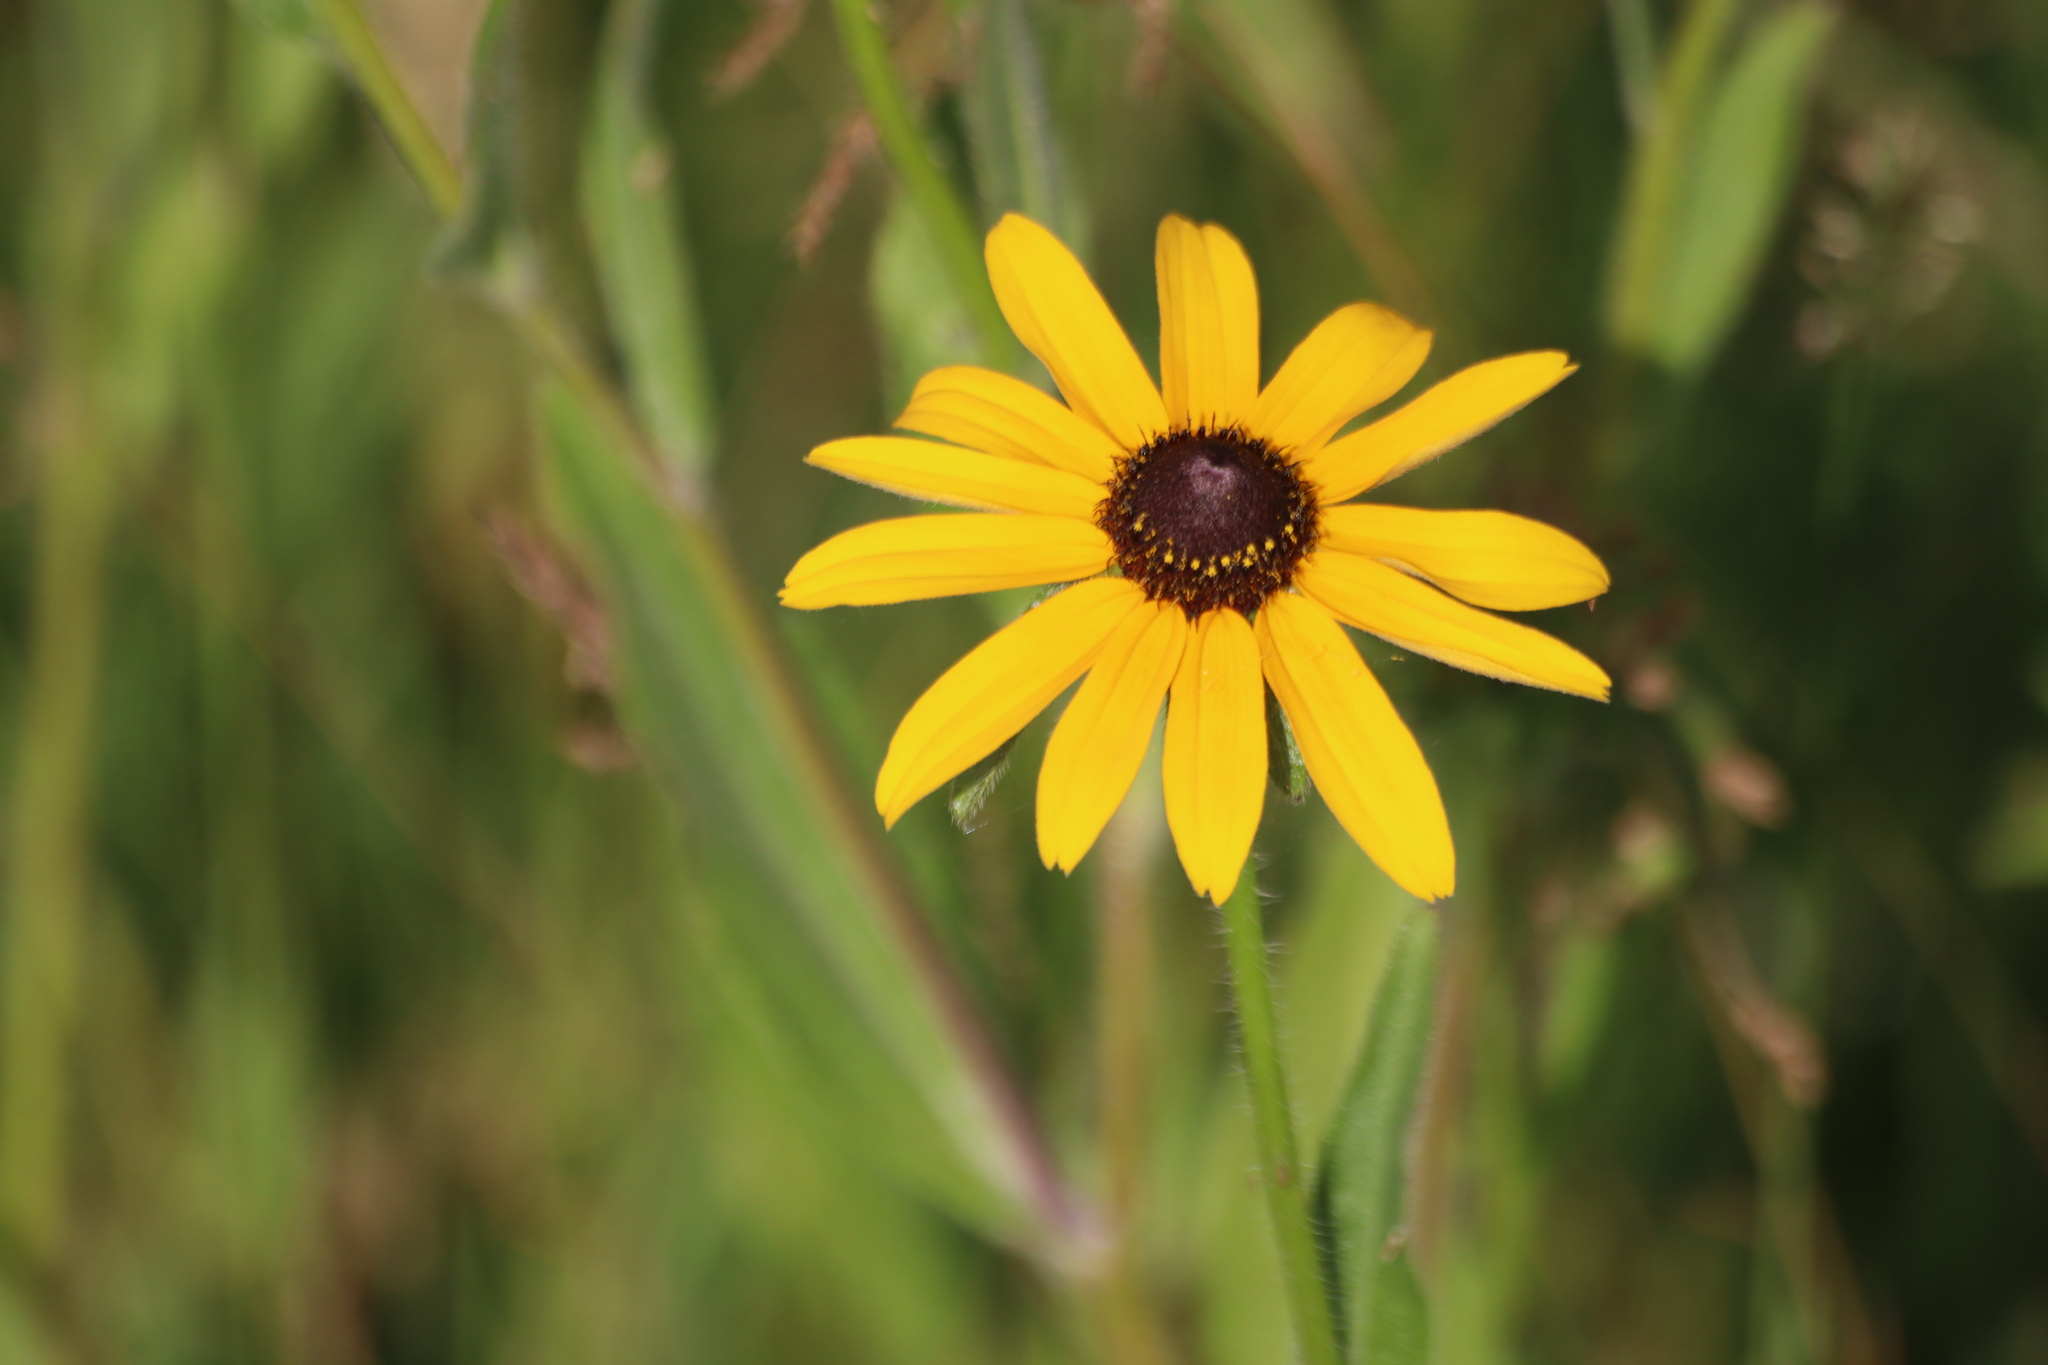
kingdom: Plantae
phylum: Tracheophyta
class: Magnoliopsida
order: Asterales
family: Asteraceae
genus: Rudbeckia
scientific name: Rudbeckia hirta
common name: Black-eyed-susan
